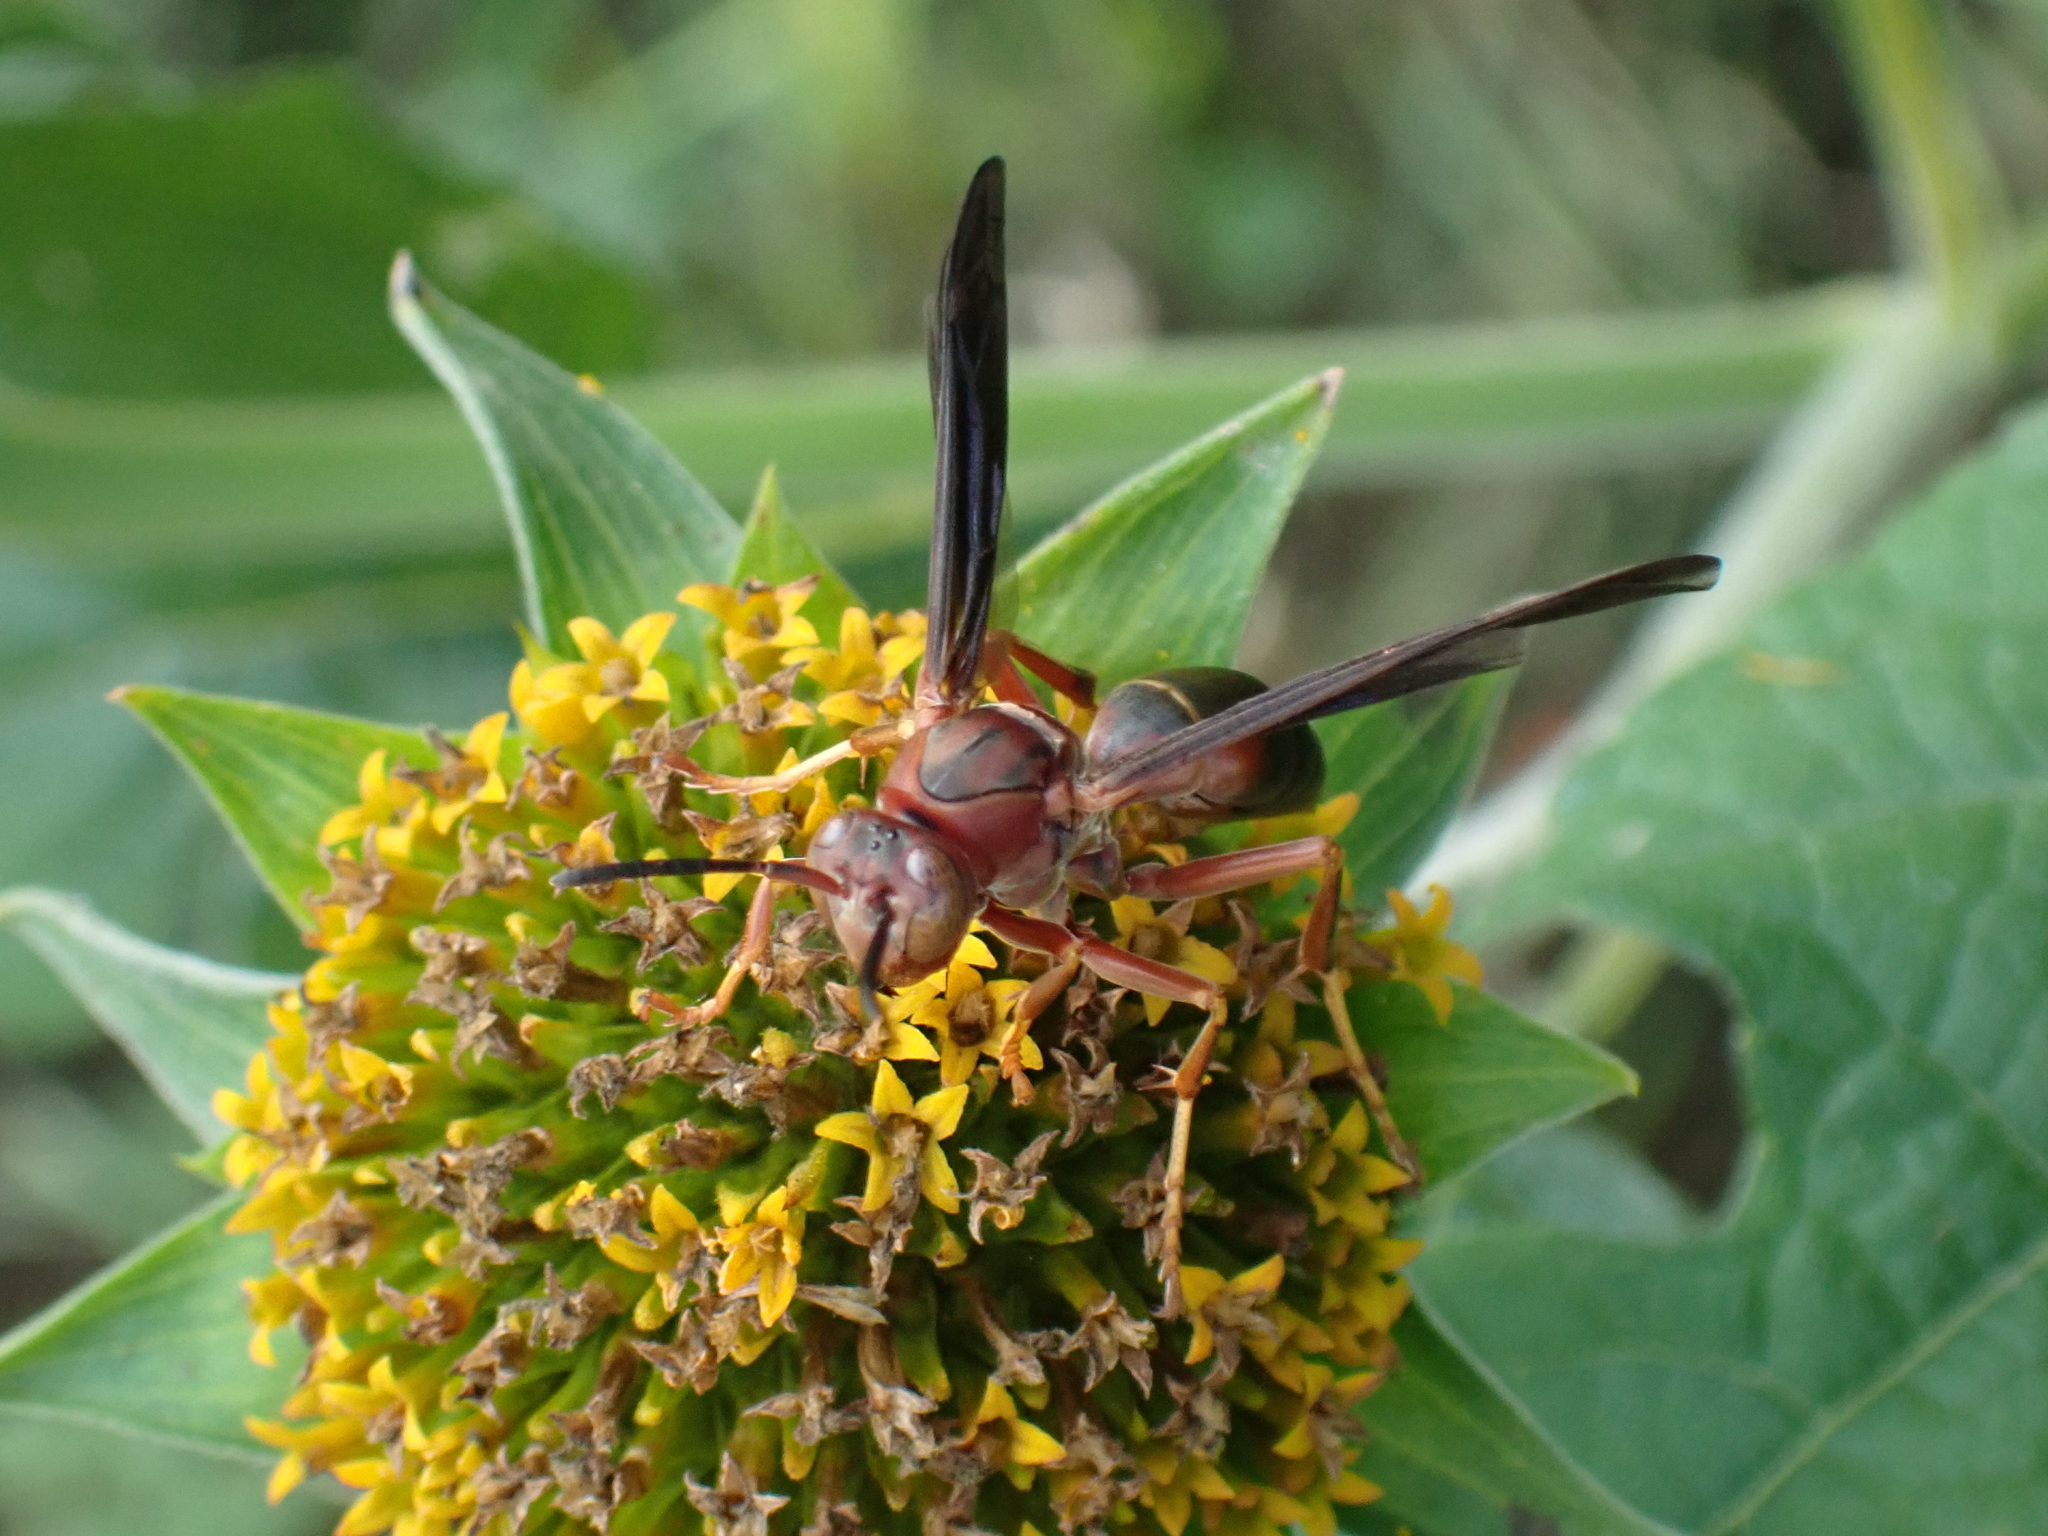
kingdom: Animalia
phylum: Arthropoda
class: Insecta
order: Hymenoptera
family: Eumenidae
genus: Polistes
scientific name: Polistes metricus
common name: Metric paper wasp
